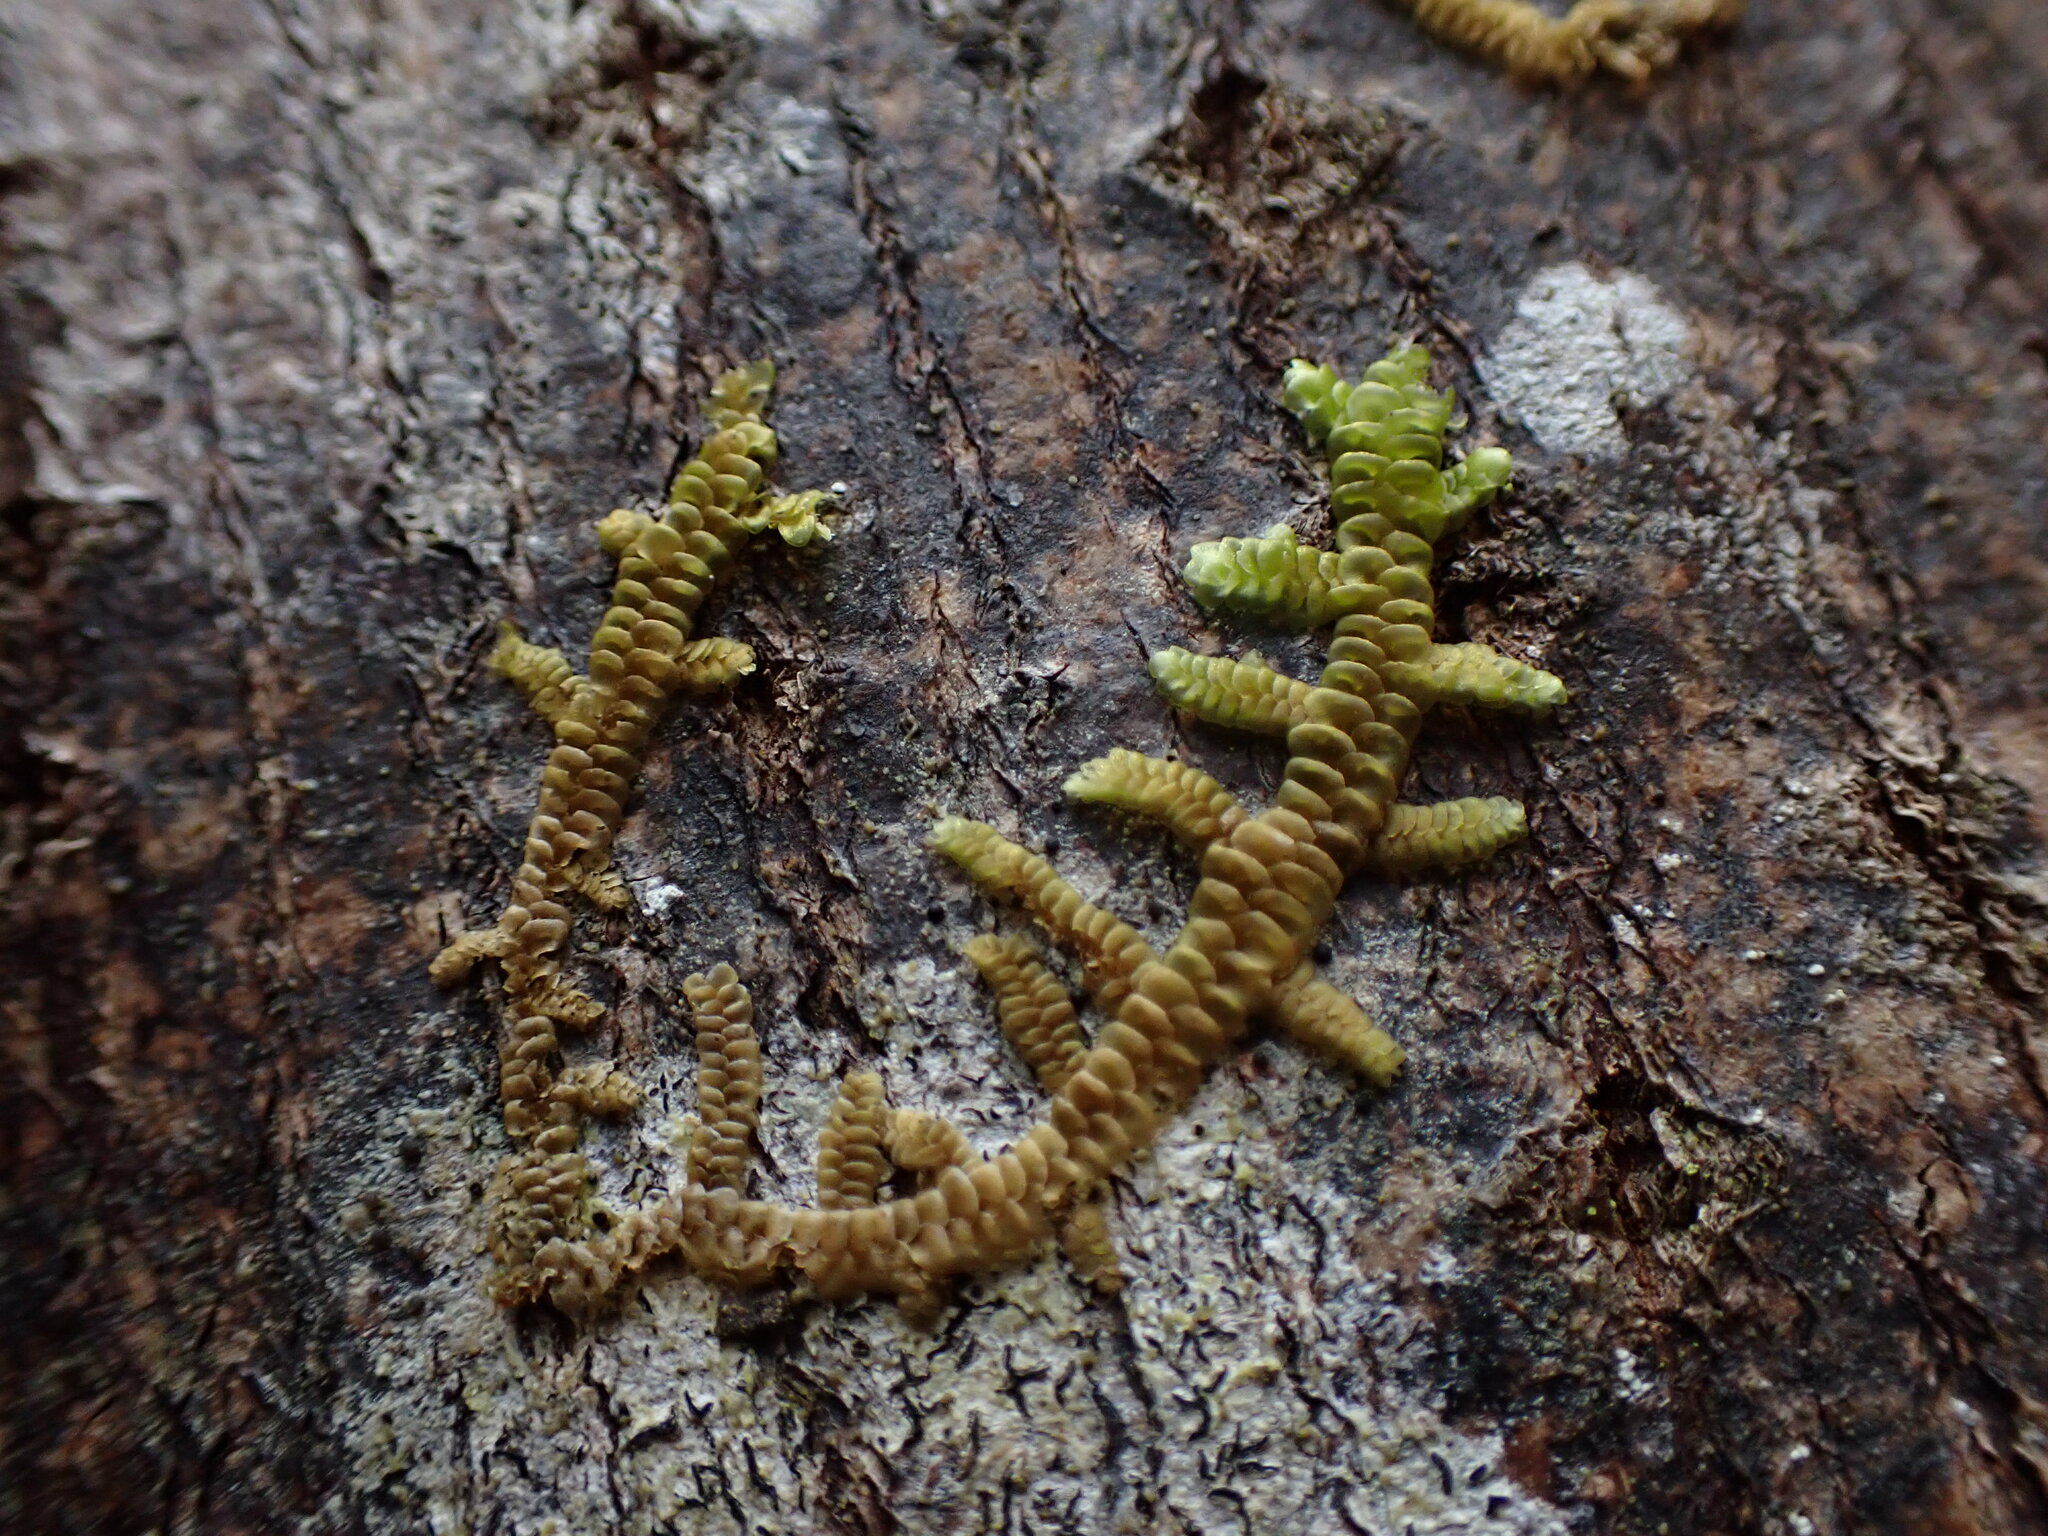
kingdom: Plantae
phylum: Marchantiophyta
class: Jungermanniopsida
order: Porellales
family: Porellaceae
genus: Porella
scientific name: Porella navicularis
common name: Tree ruffle liverwort
